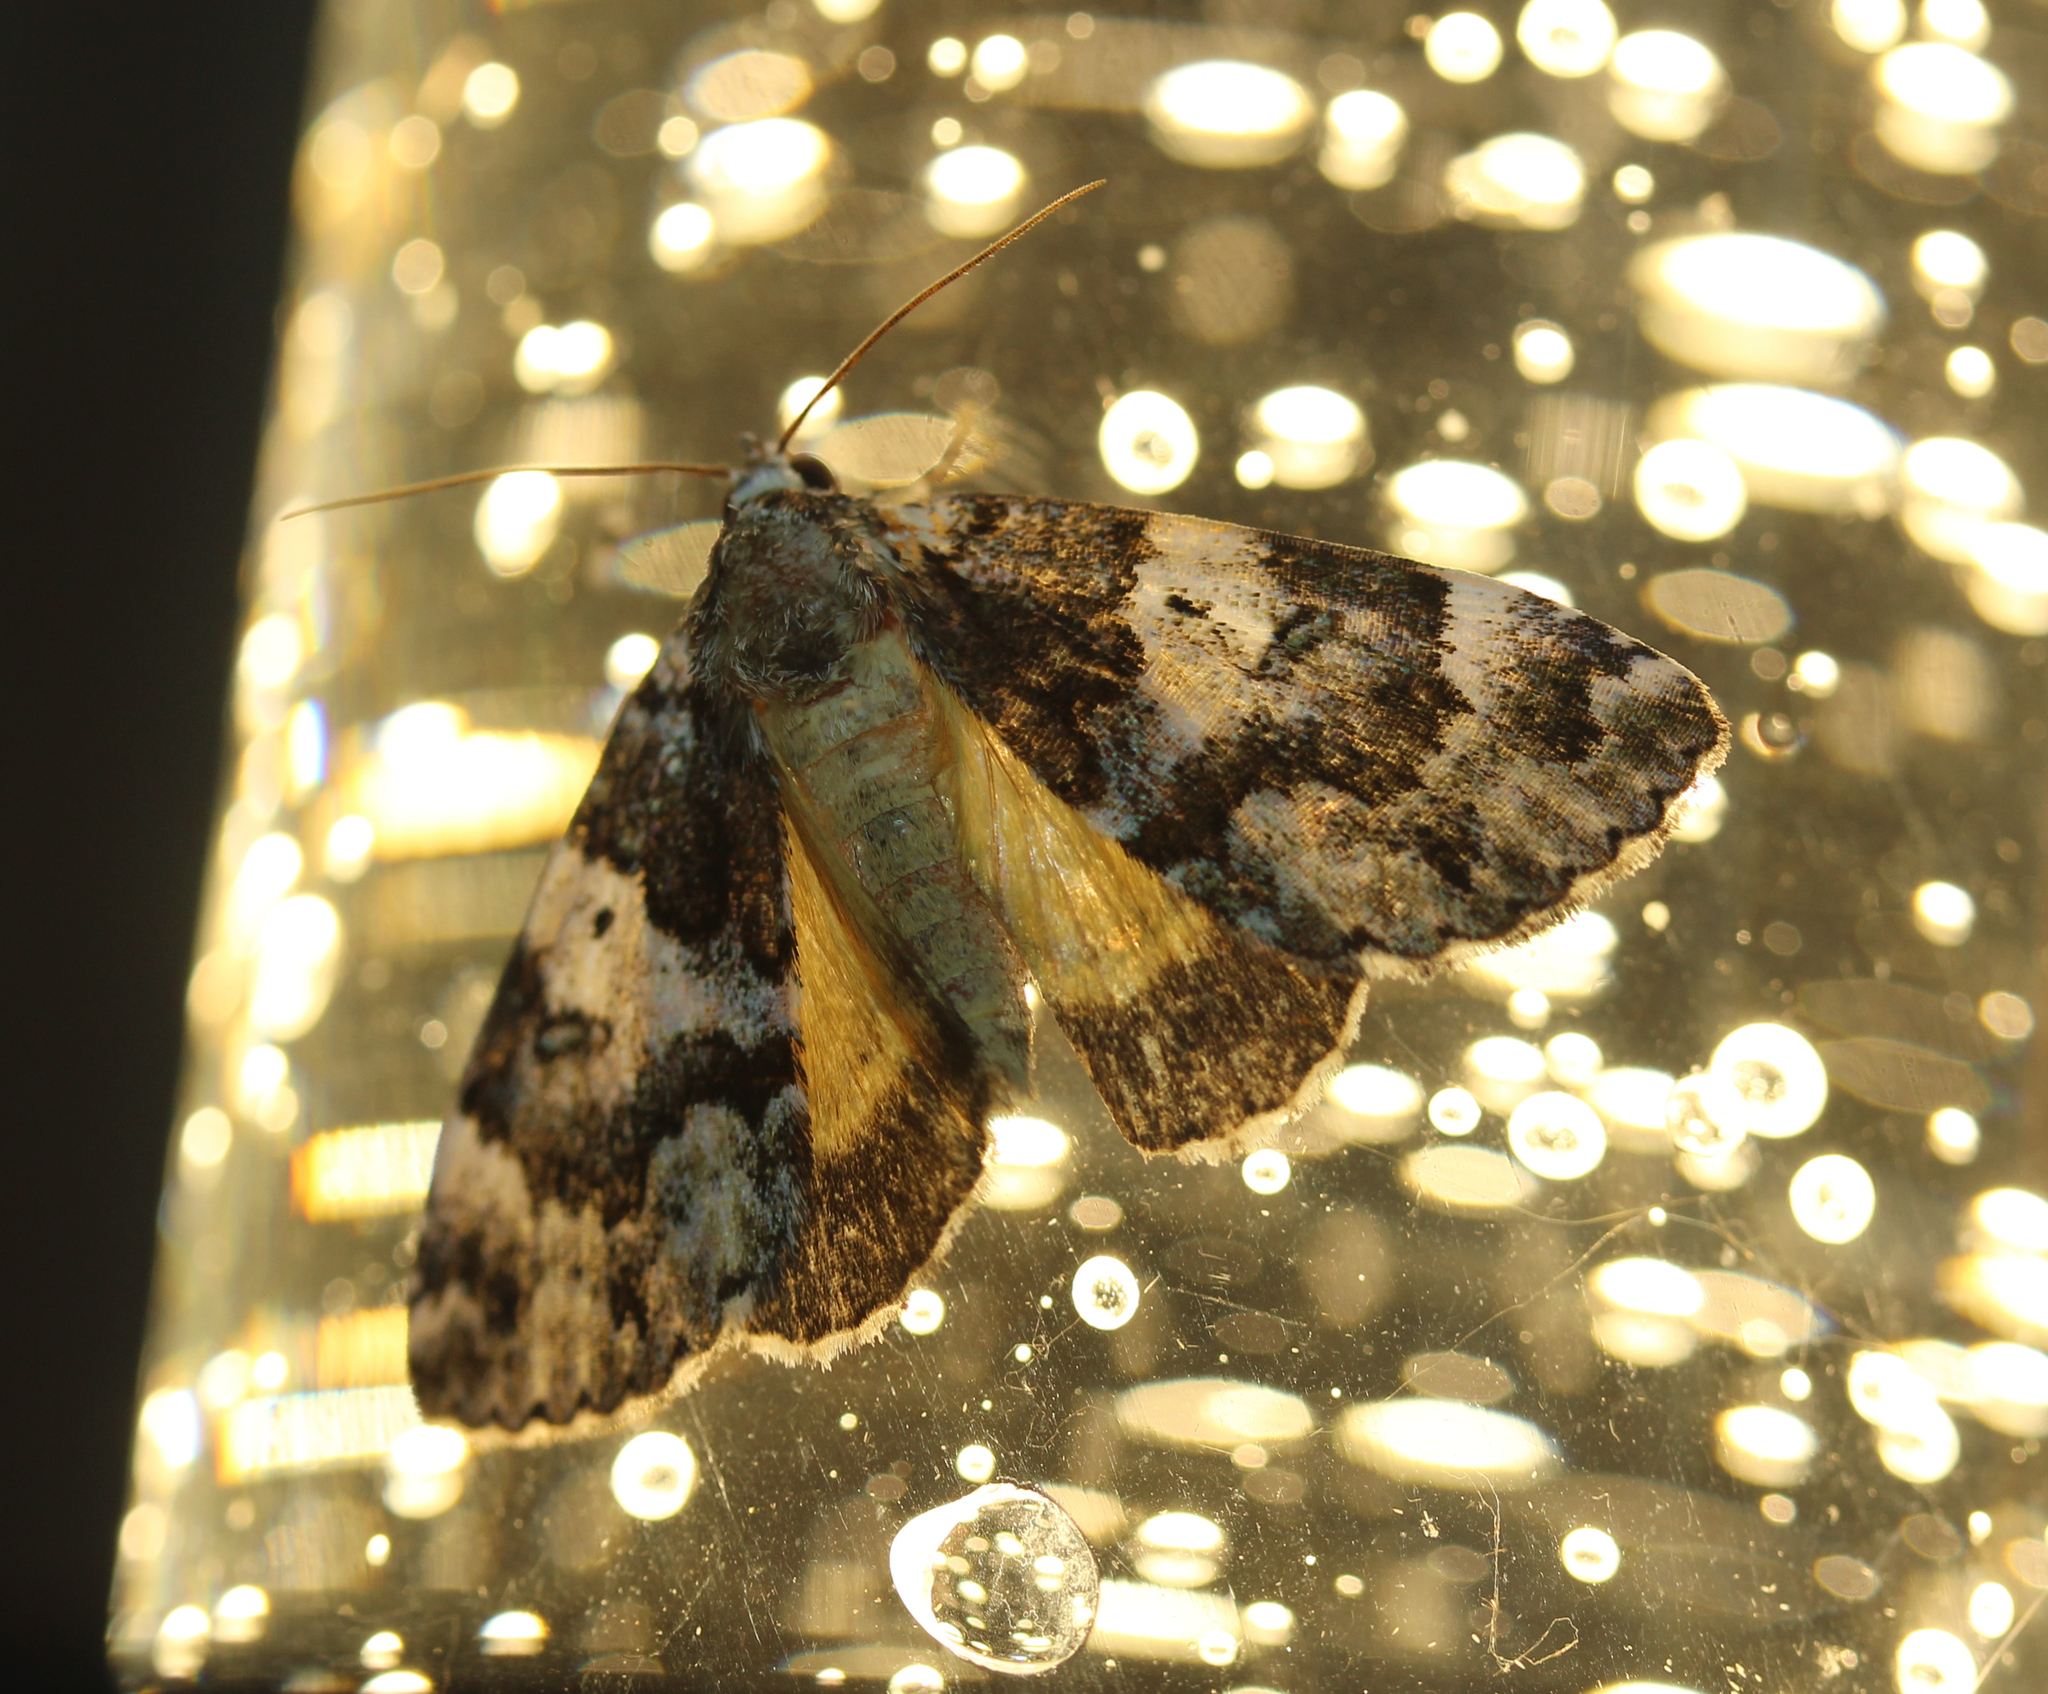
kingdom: Animalia
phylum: Arthropoda
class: Insecta
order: Lepidoptera
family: Erebidae
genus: Allotria
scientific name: Allotria elonympha
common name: False underwing
